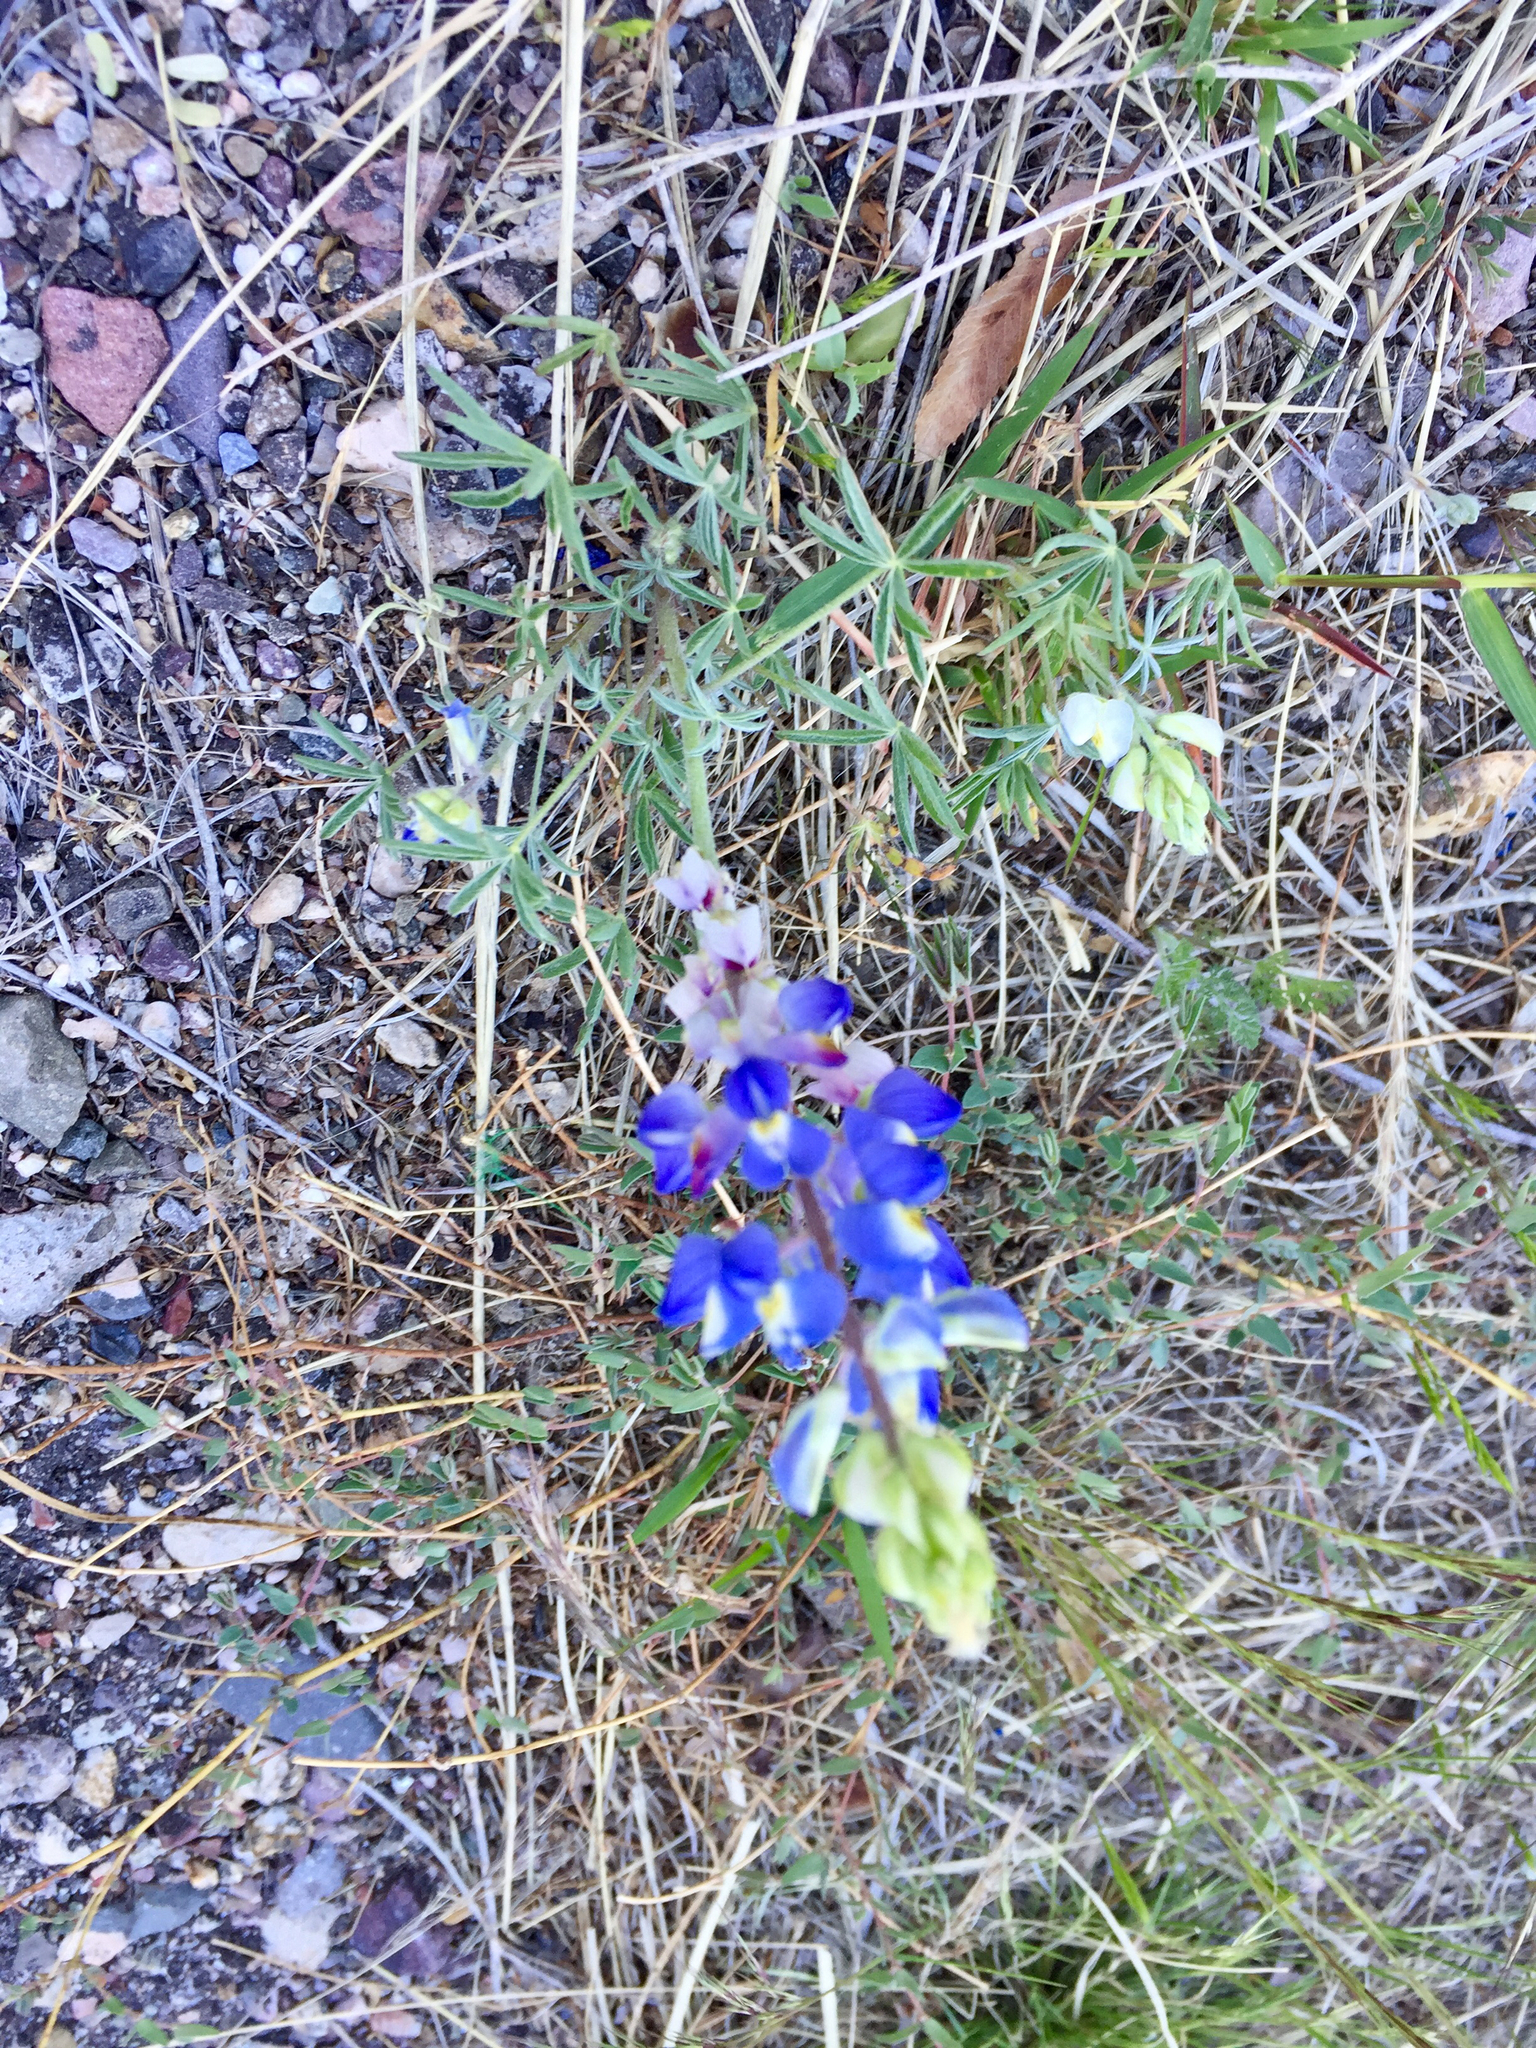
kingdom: Plantae
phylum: Tracheophyta
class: Magnoliopsida
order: Fabales
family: Fabaceae
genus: Lupinus
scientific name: Lupinus sparsiflorus
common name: Coulter's lupine
